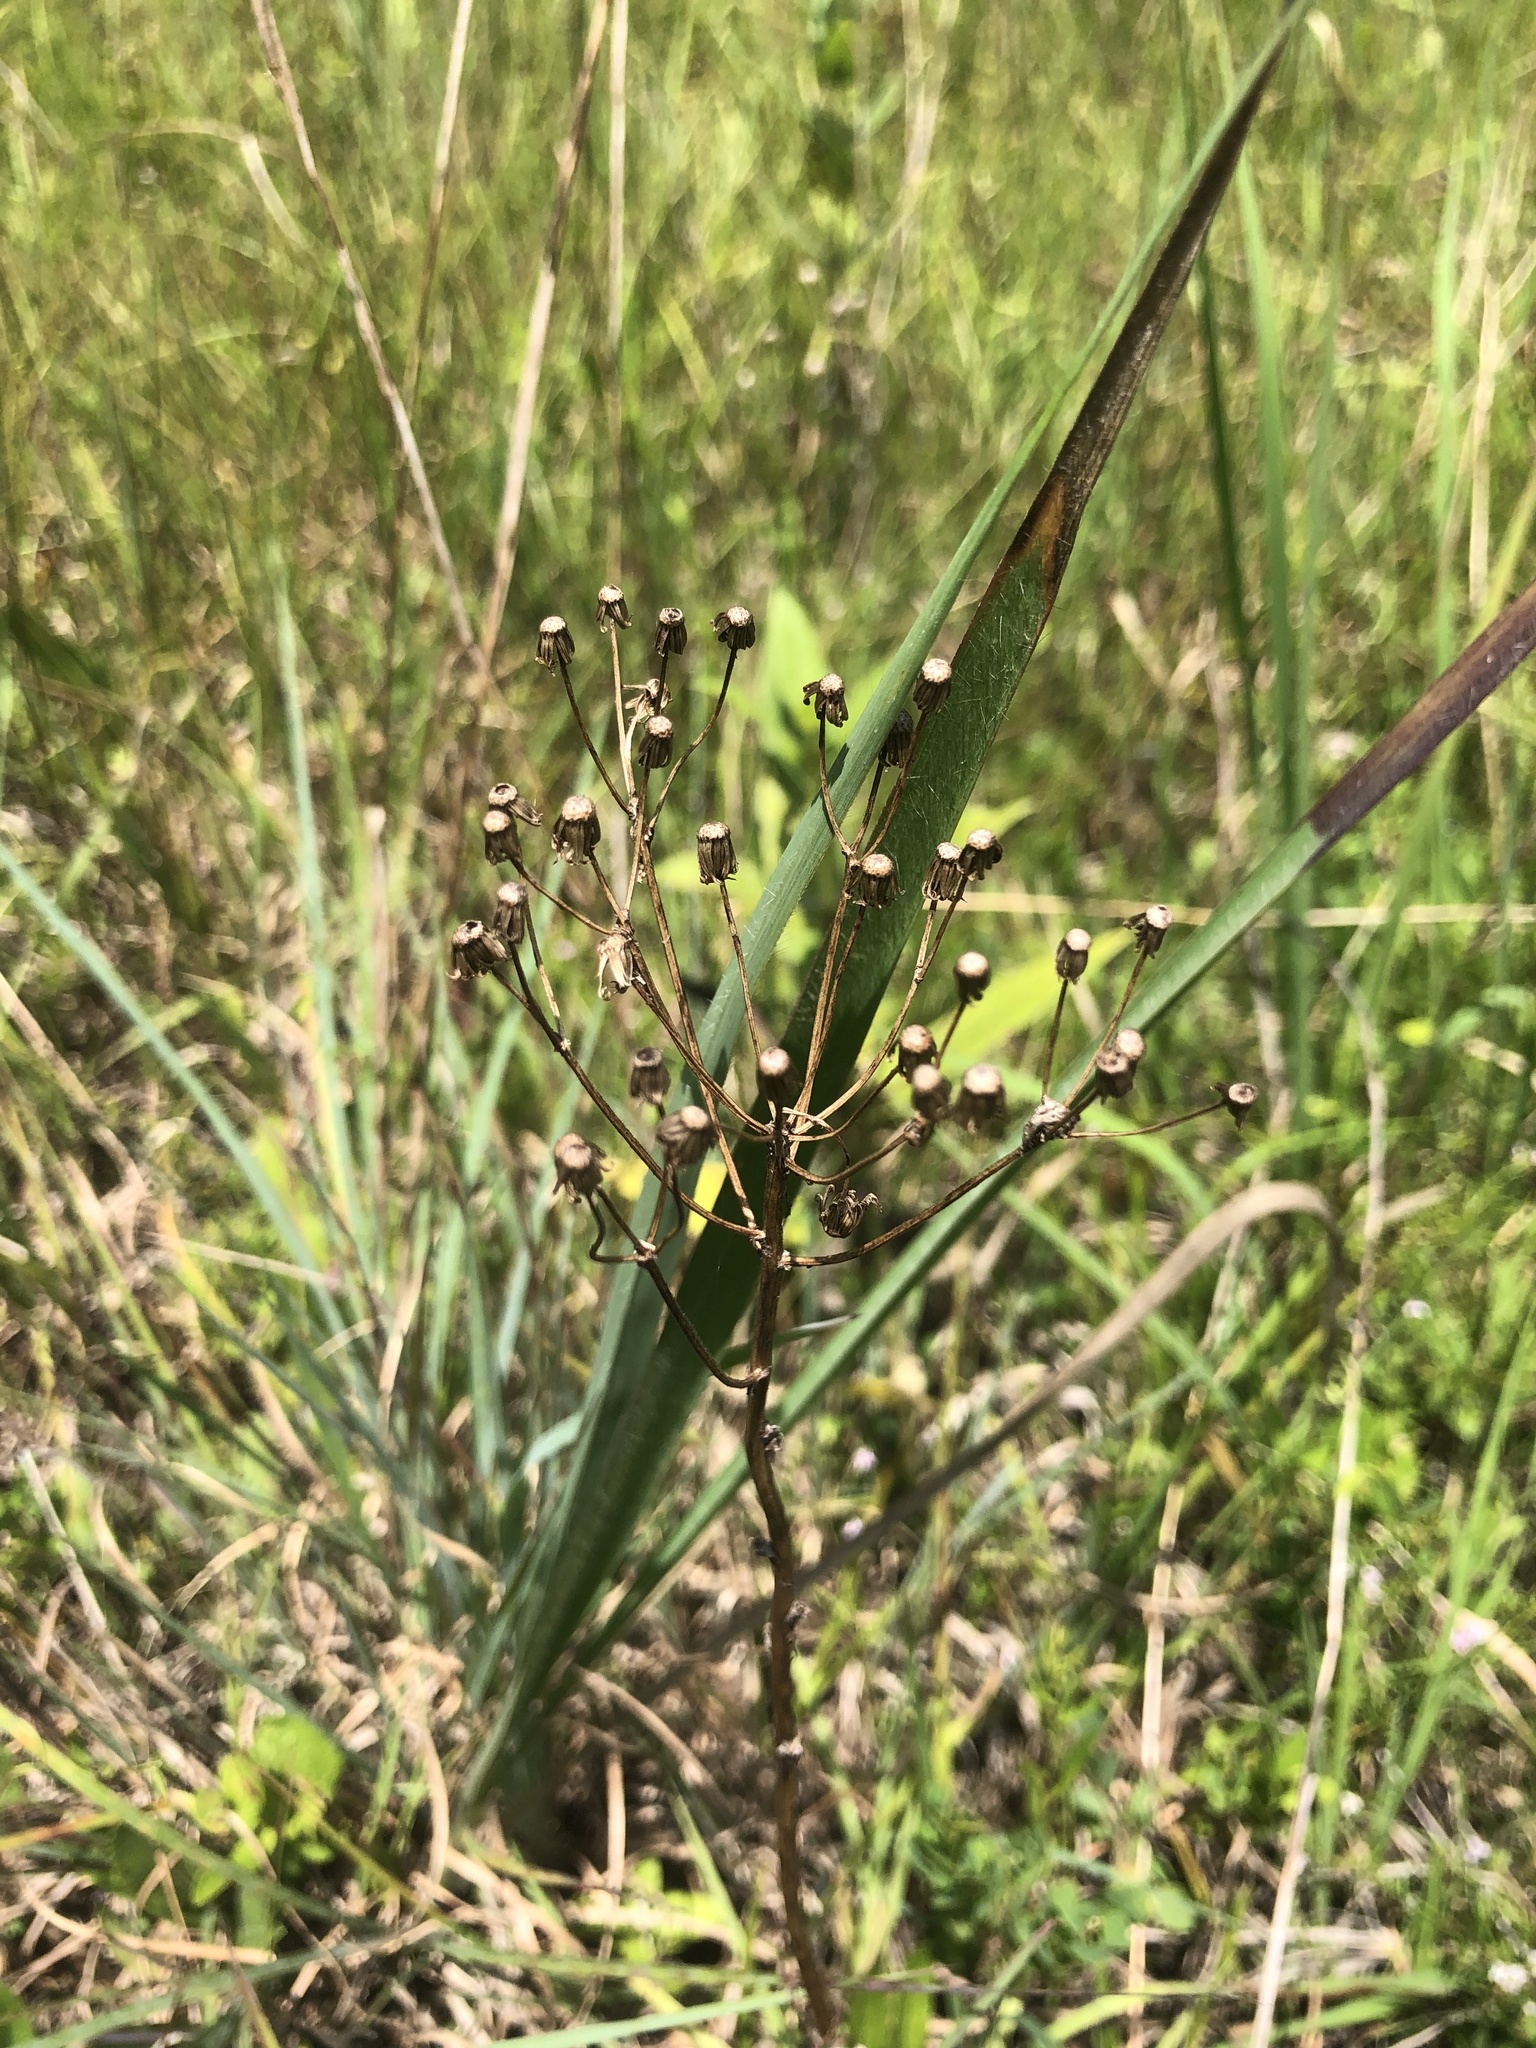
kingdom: Plantae
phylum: Tracheophyta
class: Magnoliopsida
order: Asterales
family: Asteraceae
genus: Packera
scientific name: Packera anonyma
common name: Small ragwort
